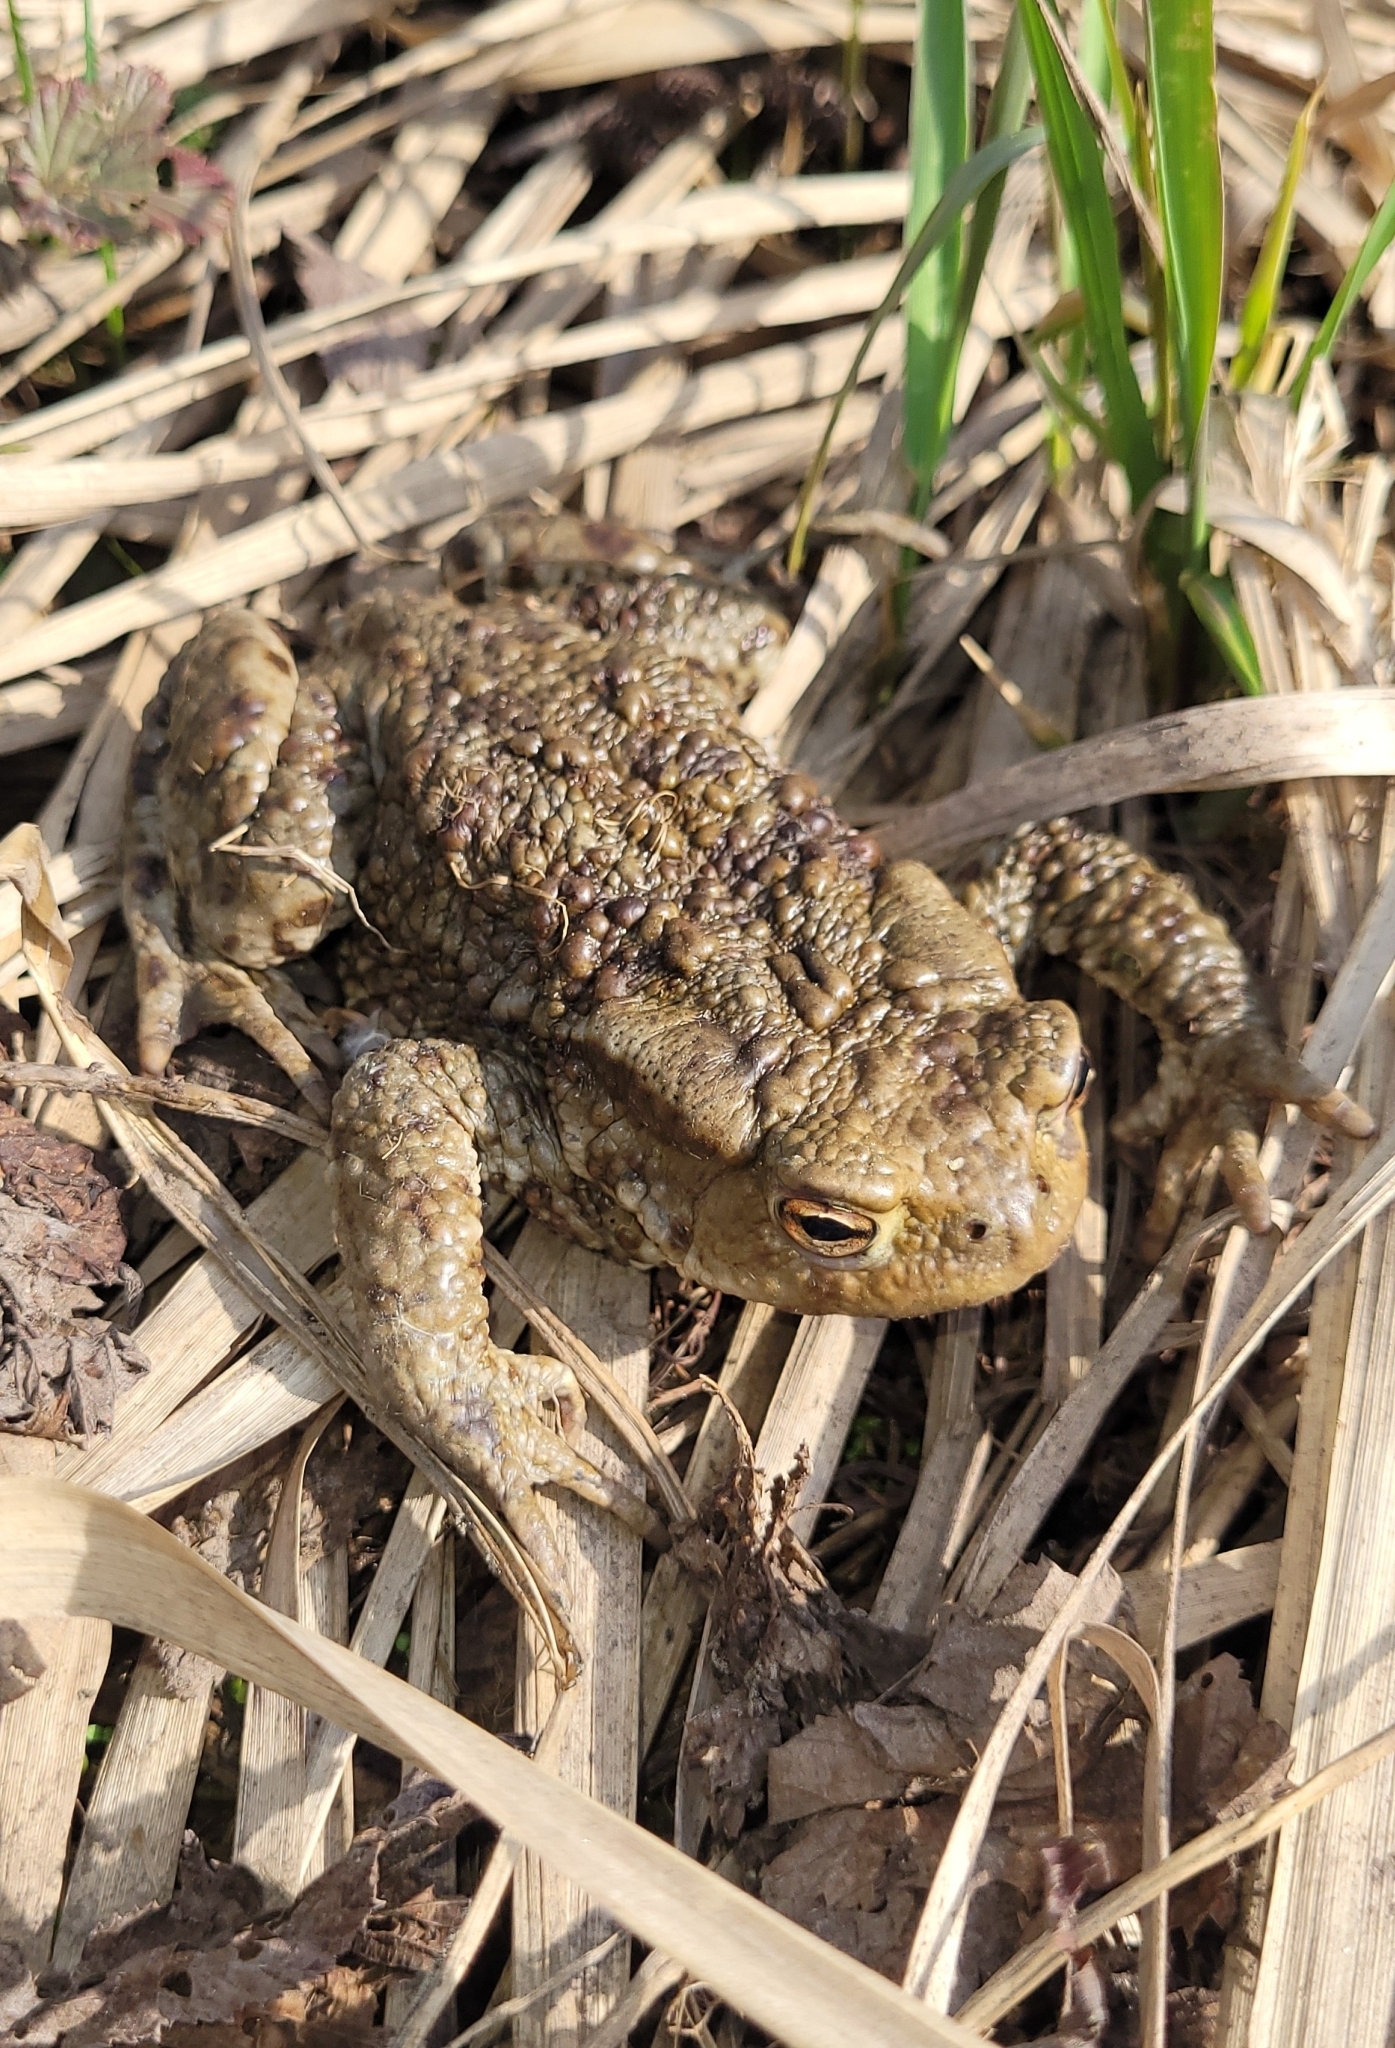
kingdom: Animalia
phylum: Chordata
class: Amphibia
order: Anura
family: Bufonidae
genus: Bufo
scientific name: Bufo bufo
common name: Common toad
